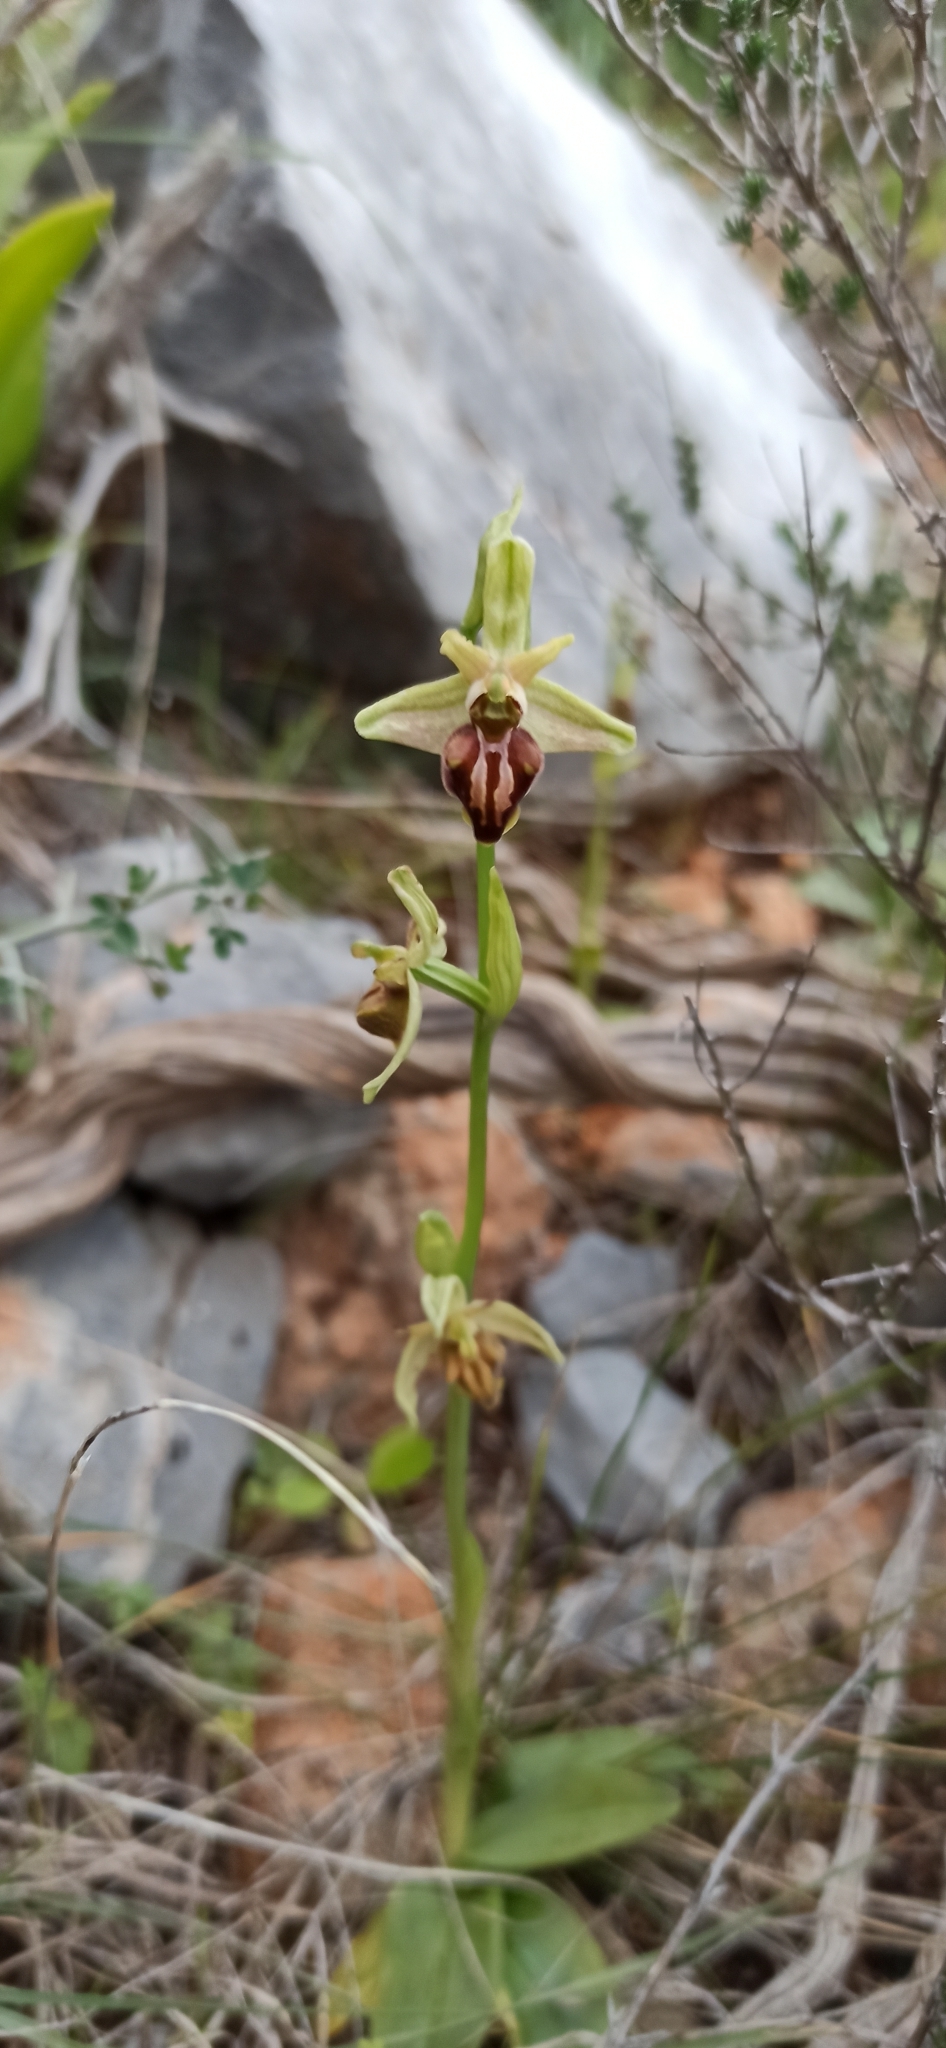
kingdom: Plantae
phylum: Tracheophyta
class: Liliopsida
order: Asparagales
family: Orchidaceae
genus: Ophrys
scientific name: Ophrys sphegodes
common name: Early spider-orchid
